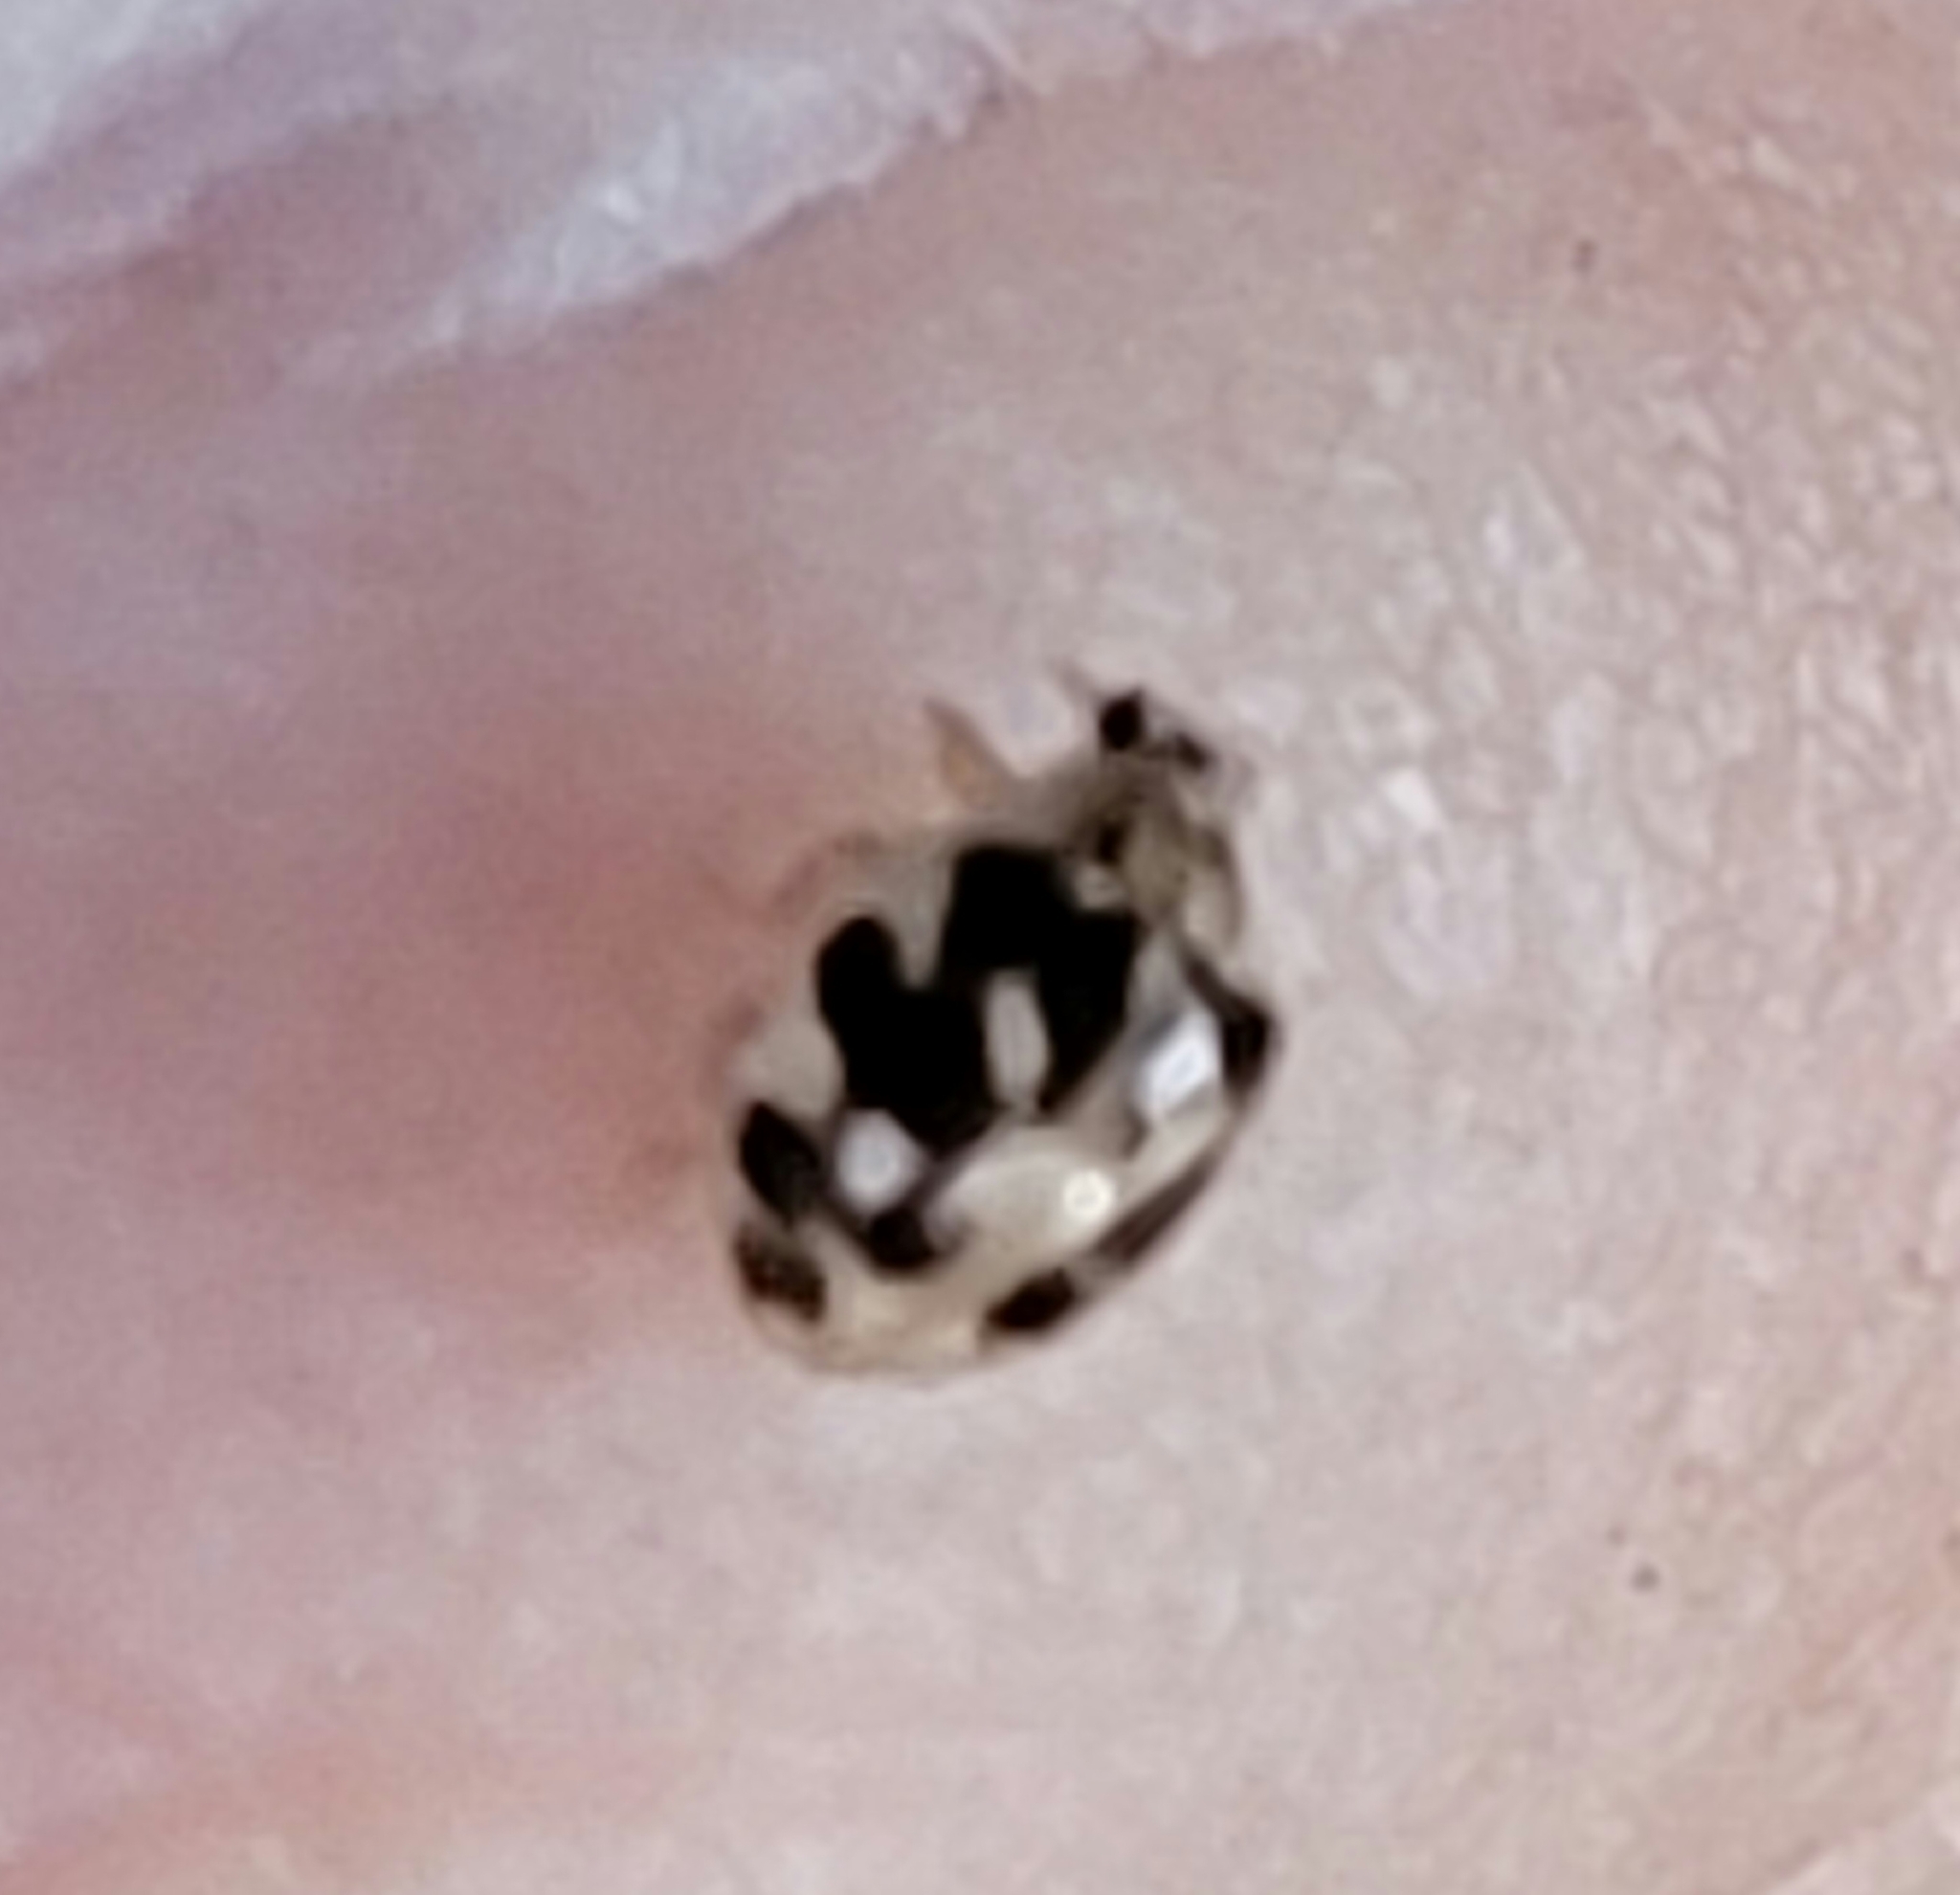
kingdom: Animalia
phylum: Arthropoda
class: Insecta
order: Coleoptera
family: Coccinellidae
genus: Psyllobora
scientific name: Psyllobora vigintimaculata
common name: Ladybird beetle
